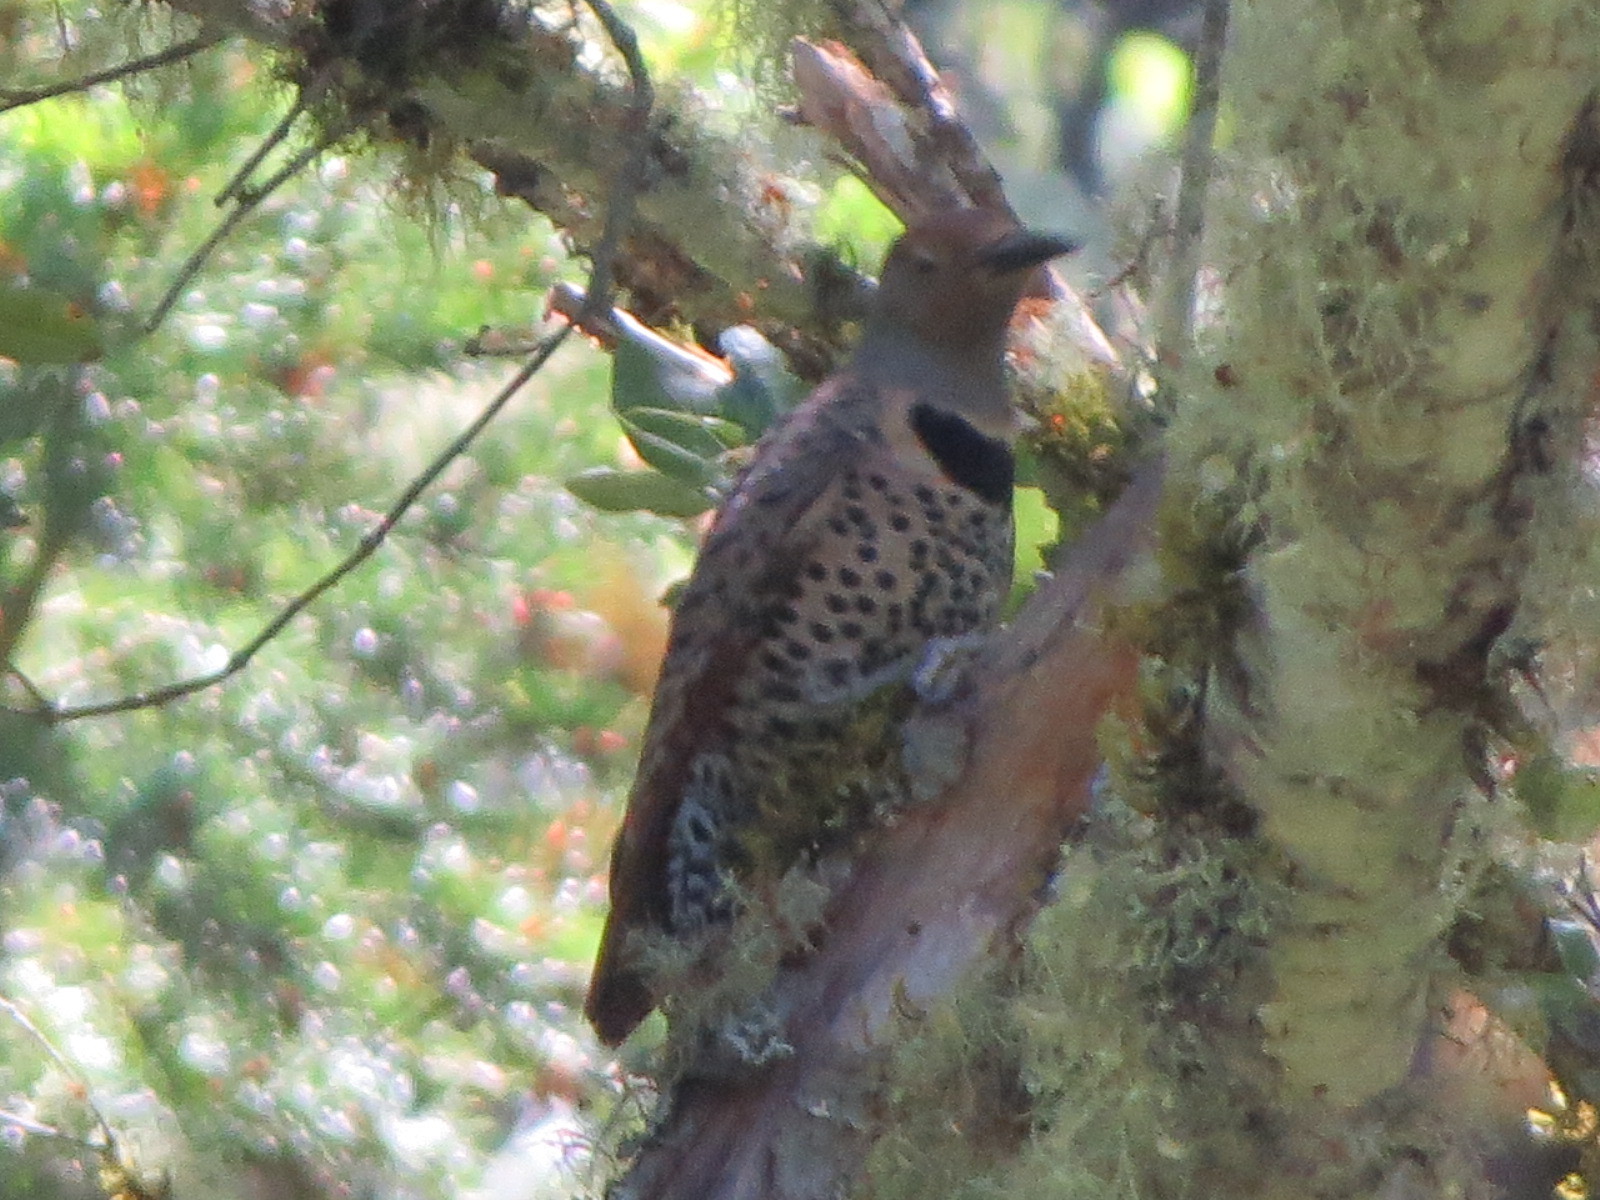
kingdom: Animalia
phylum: Chordata
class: Aves
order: Piciformes
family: Picidae
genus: Colaptes
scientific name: Colaptes auratus
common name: Northern flicker
